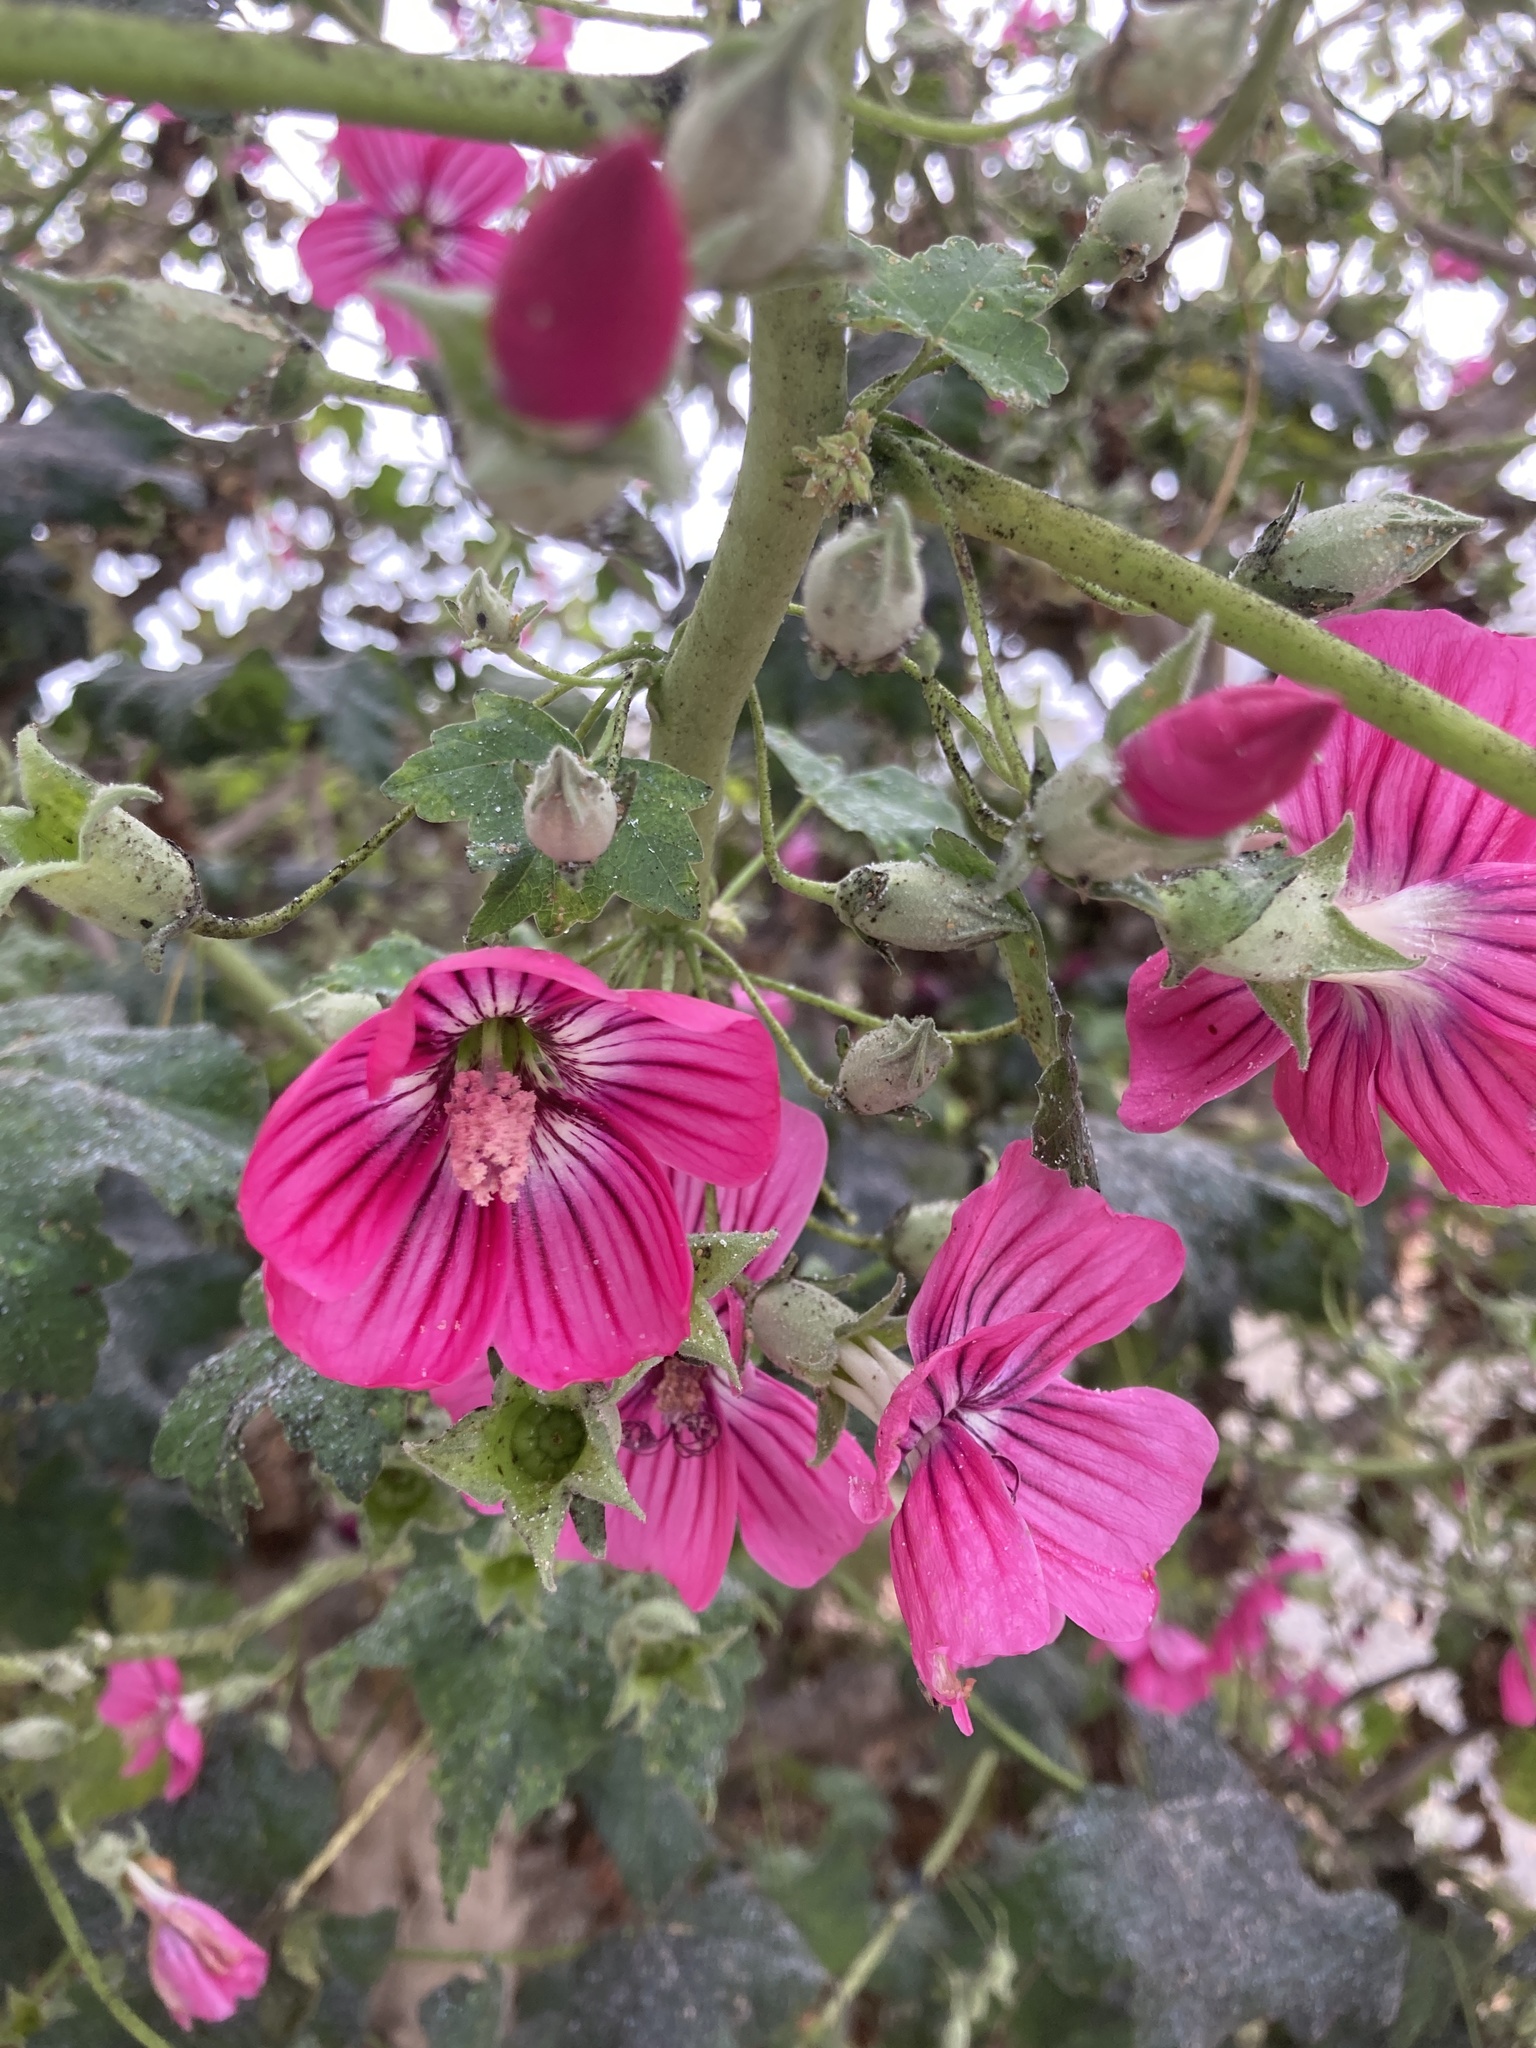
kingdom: Plantae
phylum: Tracheophyta
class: Magnoliopsida
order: Malvales
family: Malvaceae
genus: Malva
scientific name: Malva assurgentiflora
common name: Island mallow
